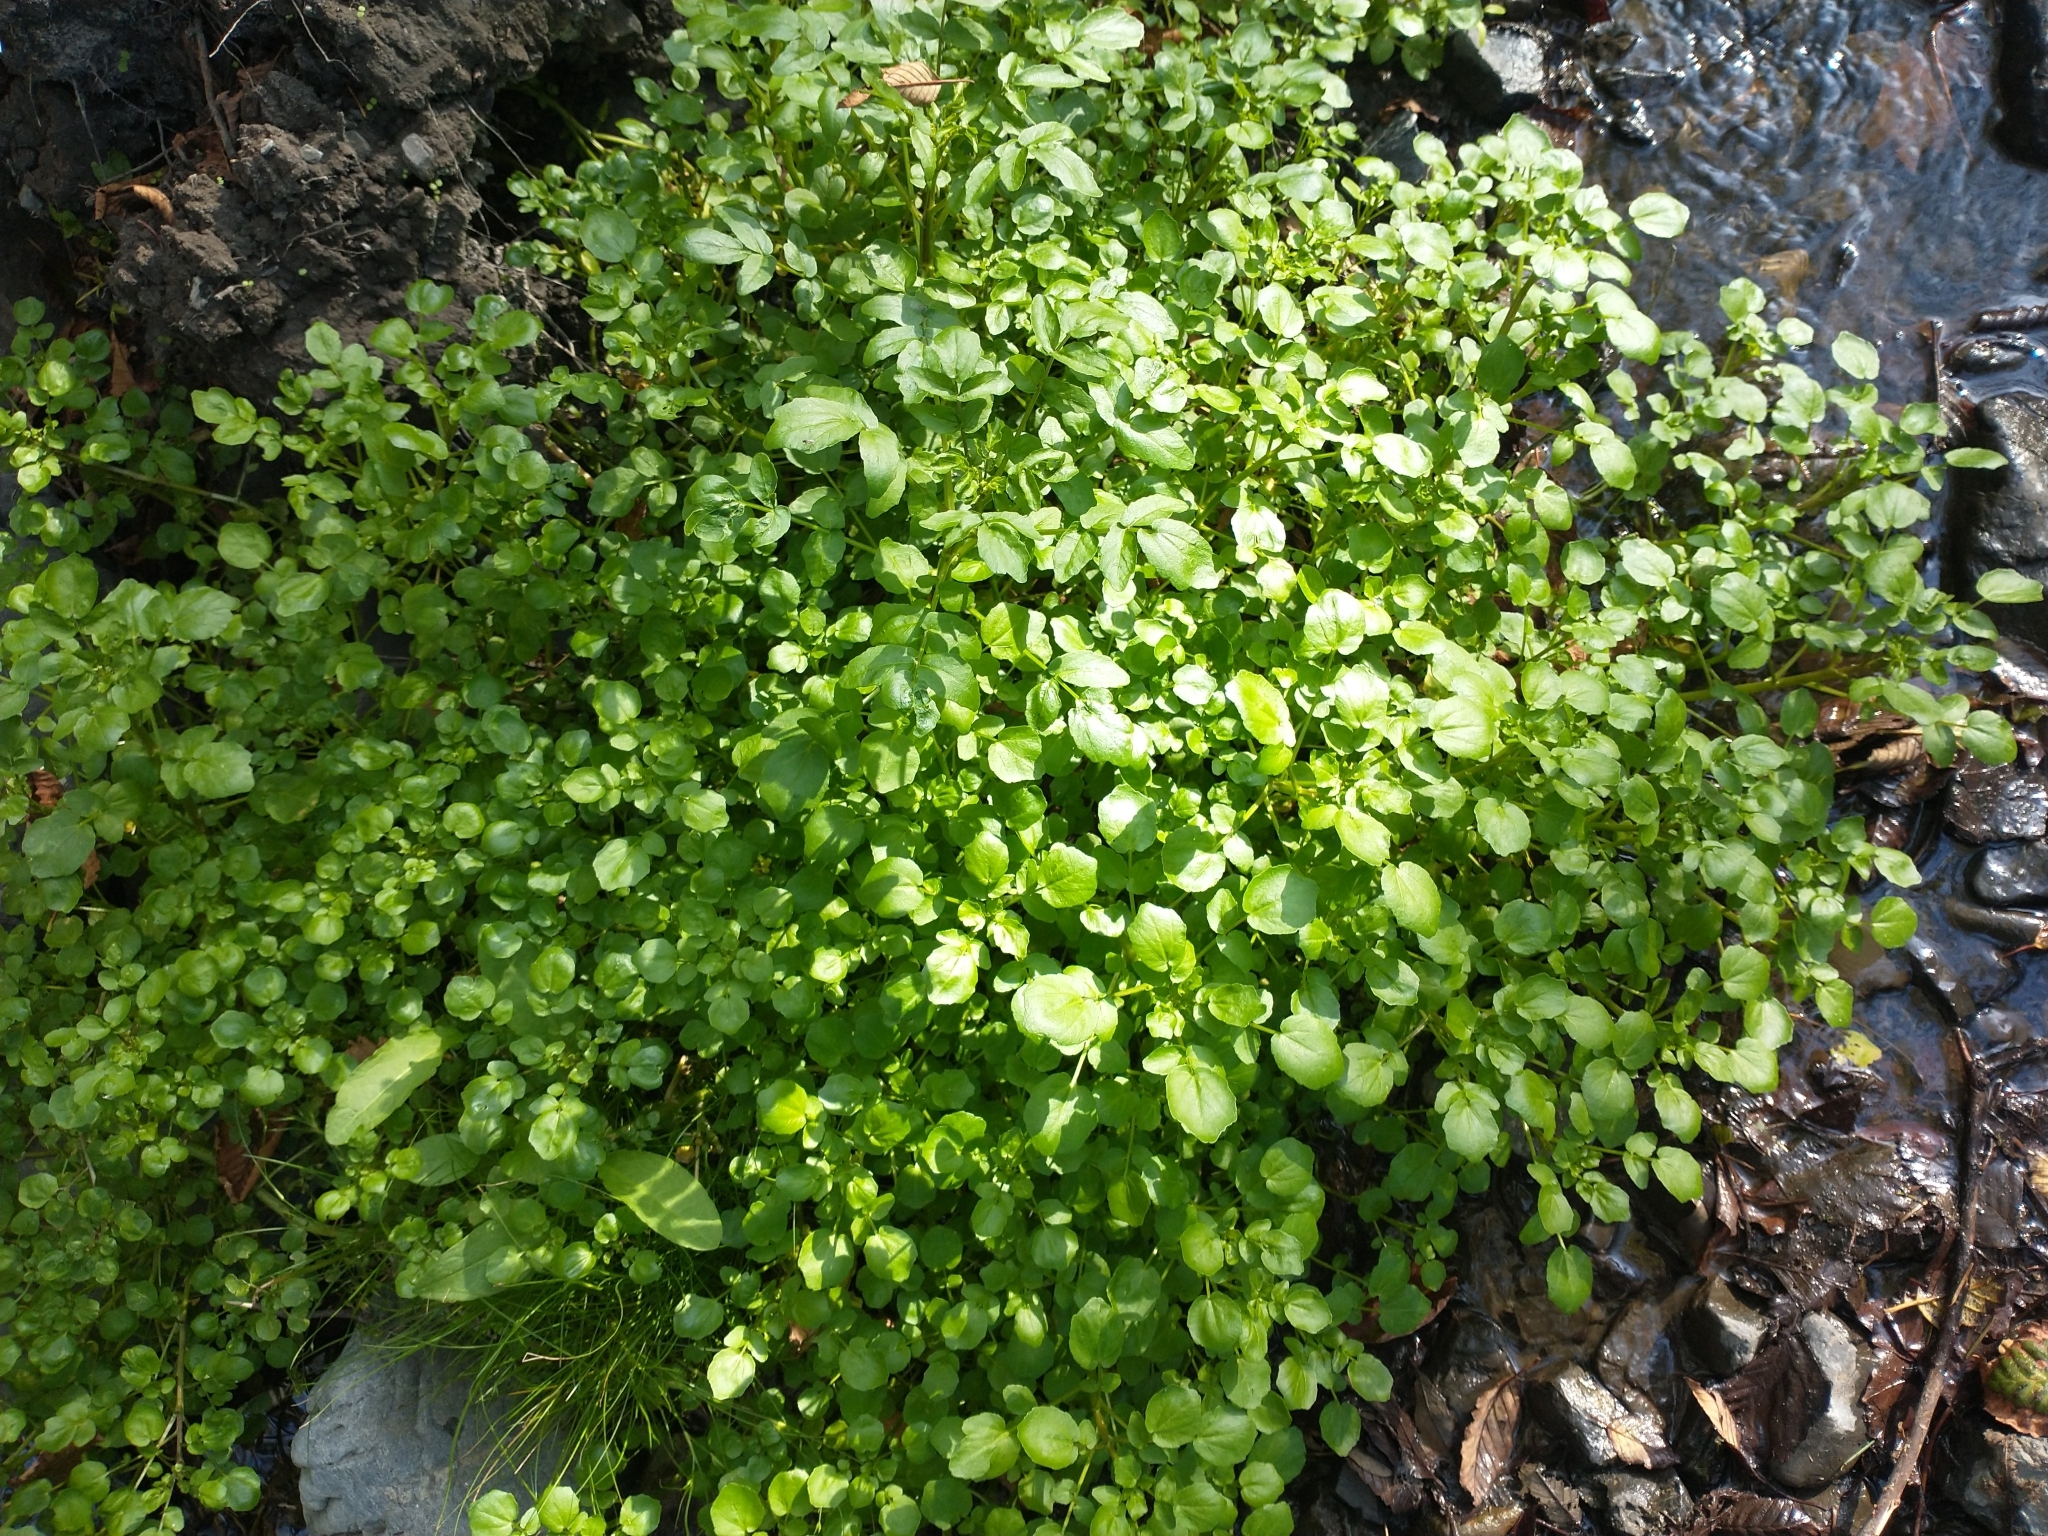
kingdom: Plantae
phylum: Tracheophyta
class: Magnoliopsida
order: Brassicales
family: Brassicaceae
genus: Nasturtium
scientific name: Nasturtium officinale
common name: Watercress
